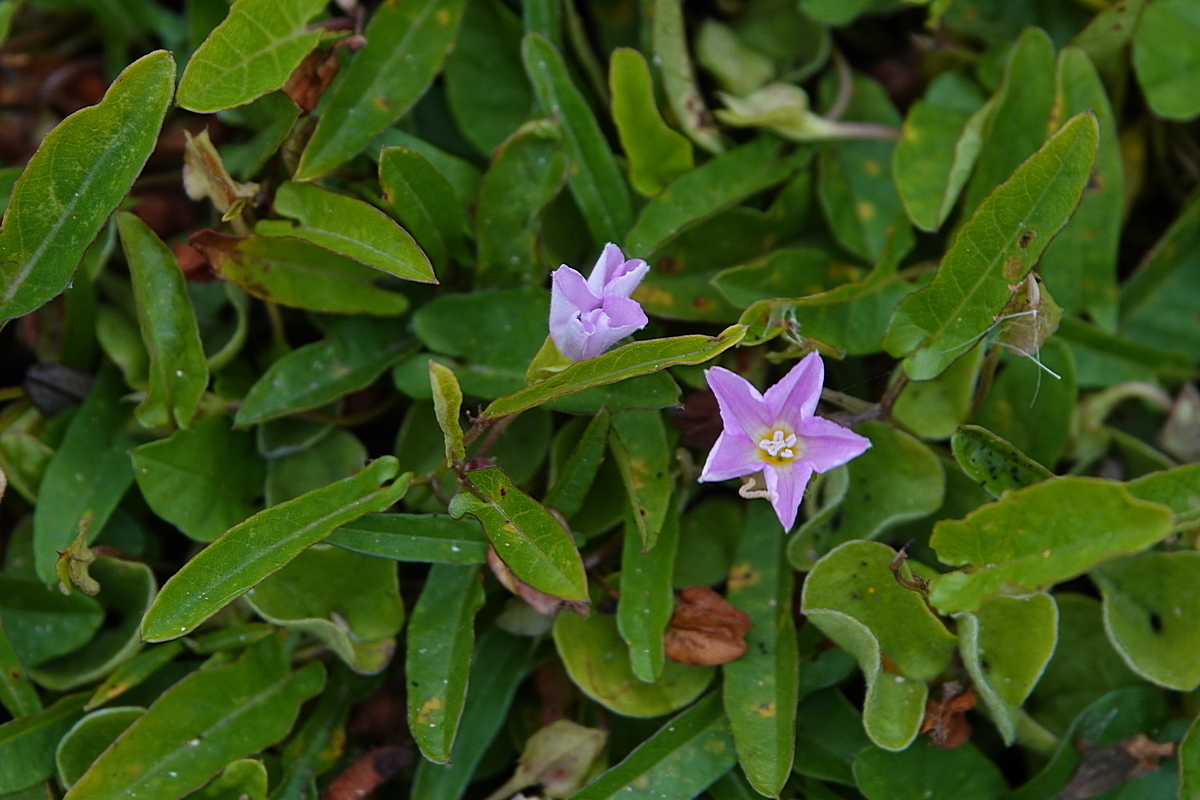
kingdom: Plantae
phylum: Tracheophyta
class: Magnoliopsida
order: Solanales
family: Convolvulaceae
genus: Polymeria
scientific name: Polymeria calycina
